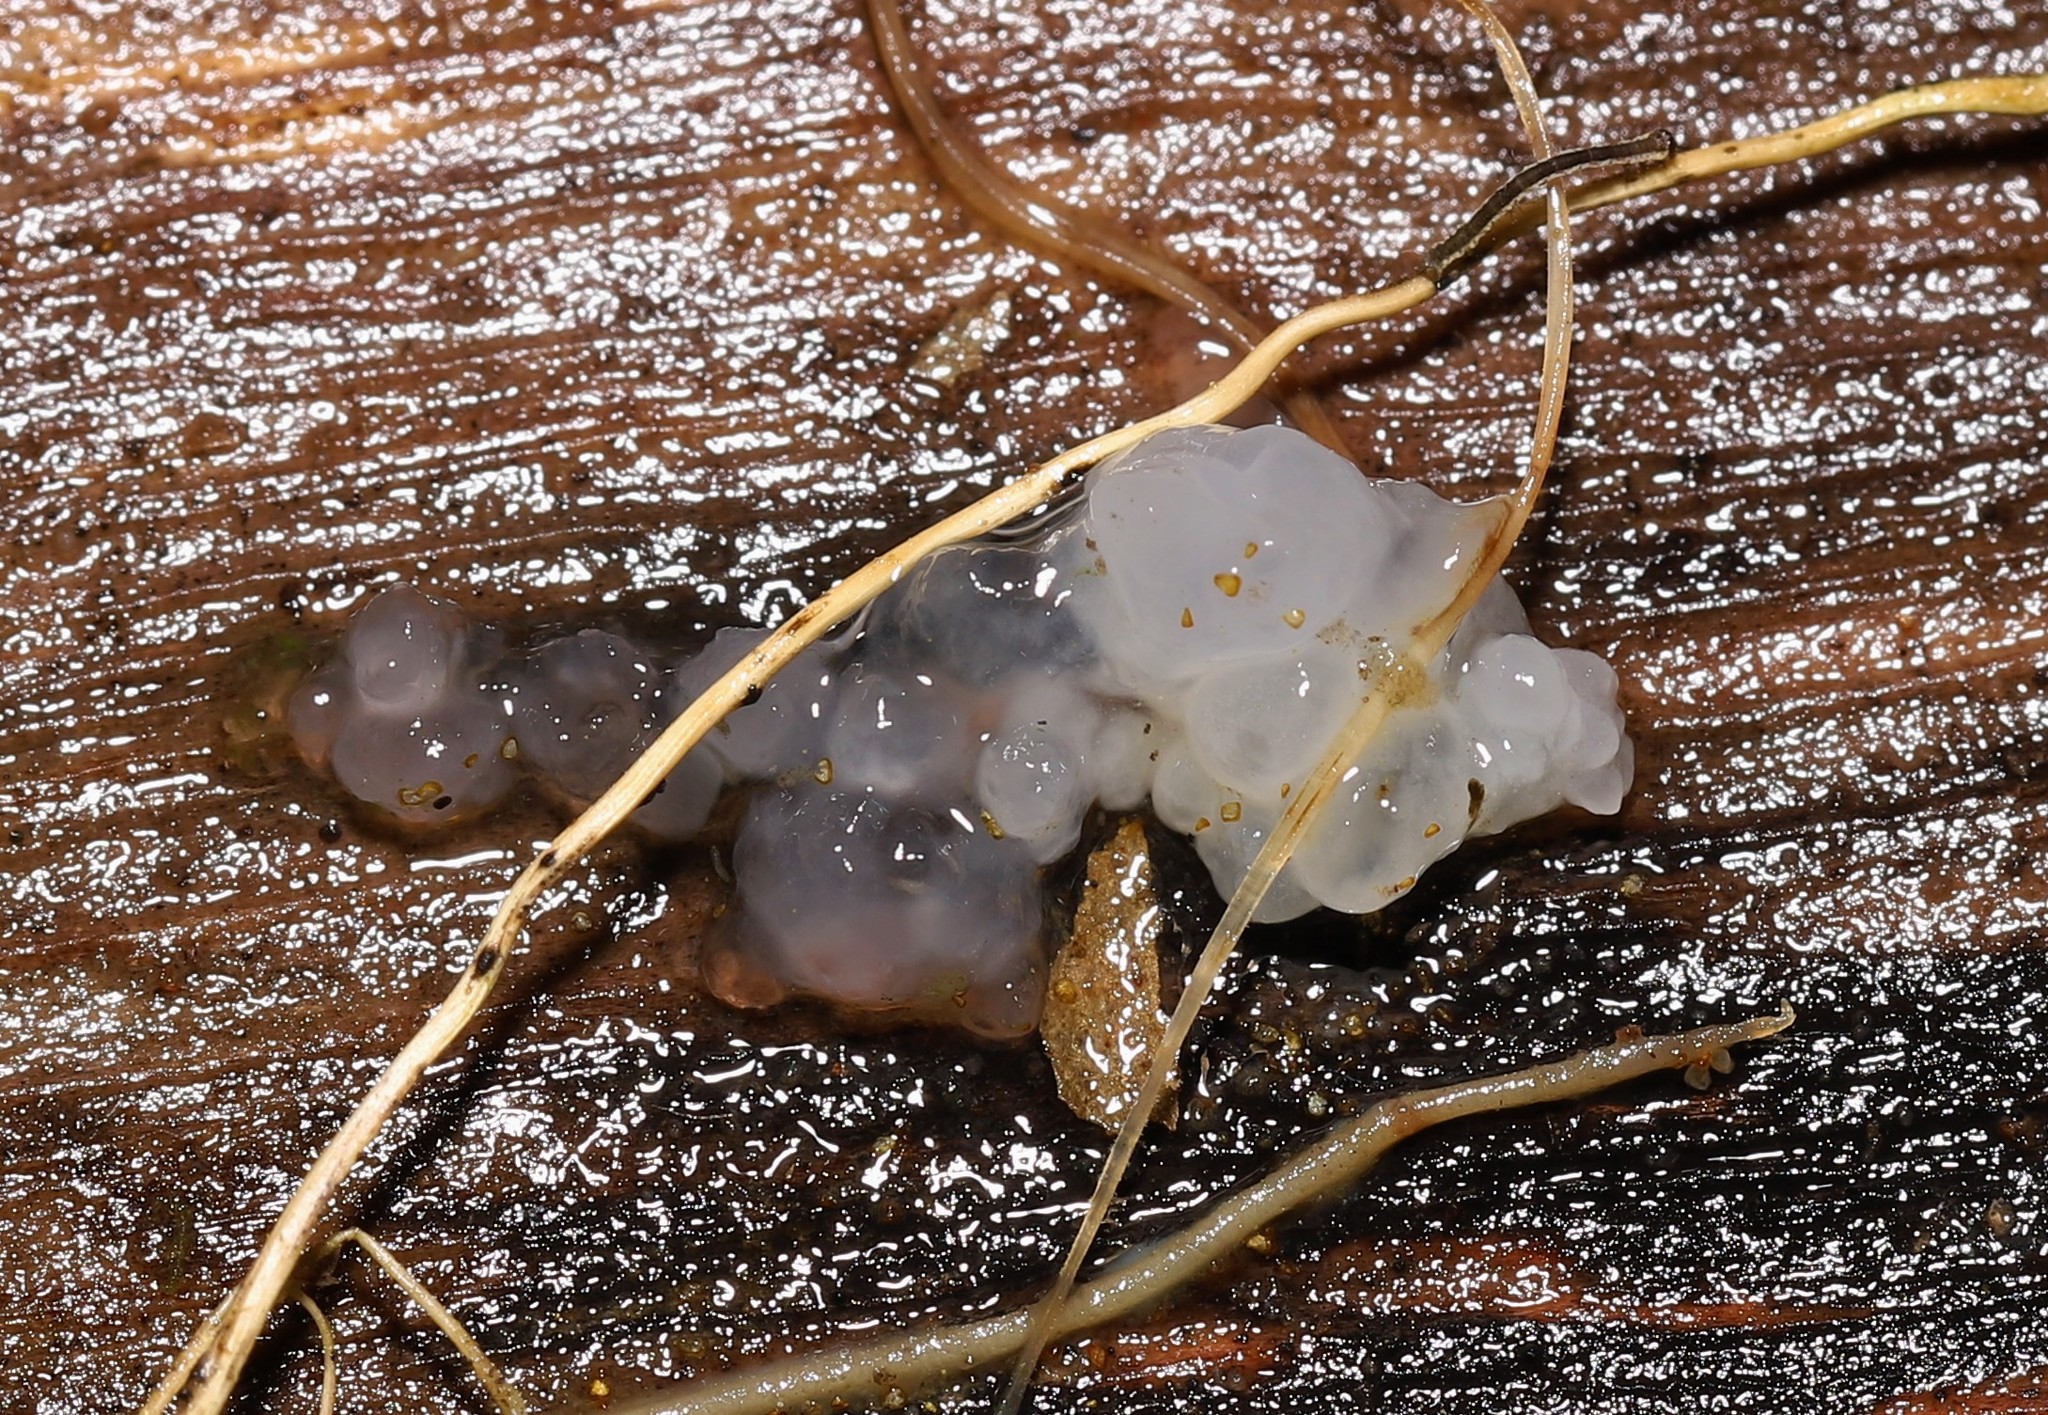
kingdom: Fungi
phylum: Basidiomycota
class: Tremellomycetes
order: Tremellales
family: Tremellaceae
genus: Tremella
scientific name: Tremella fuciformis
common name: Snow fungus
